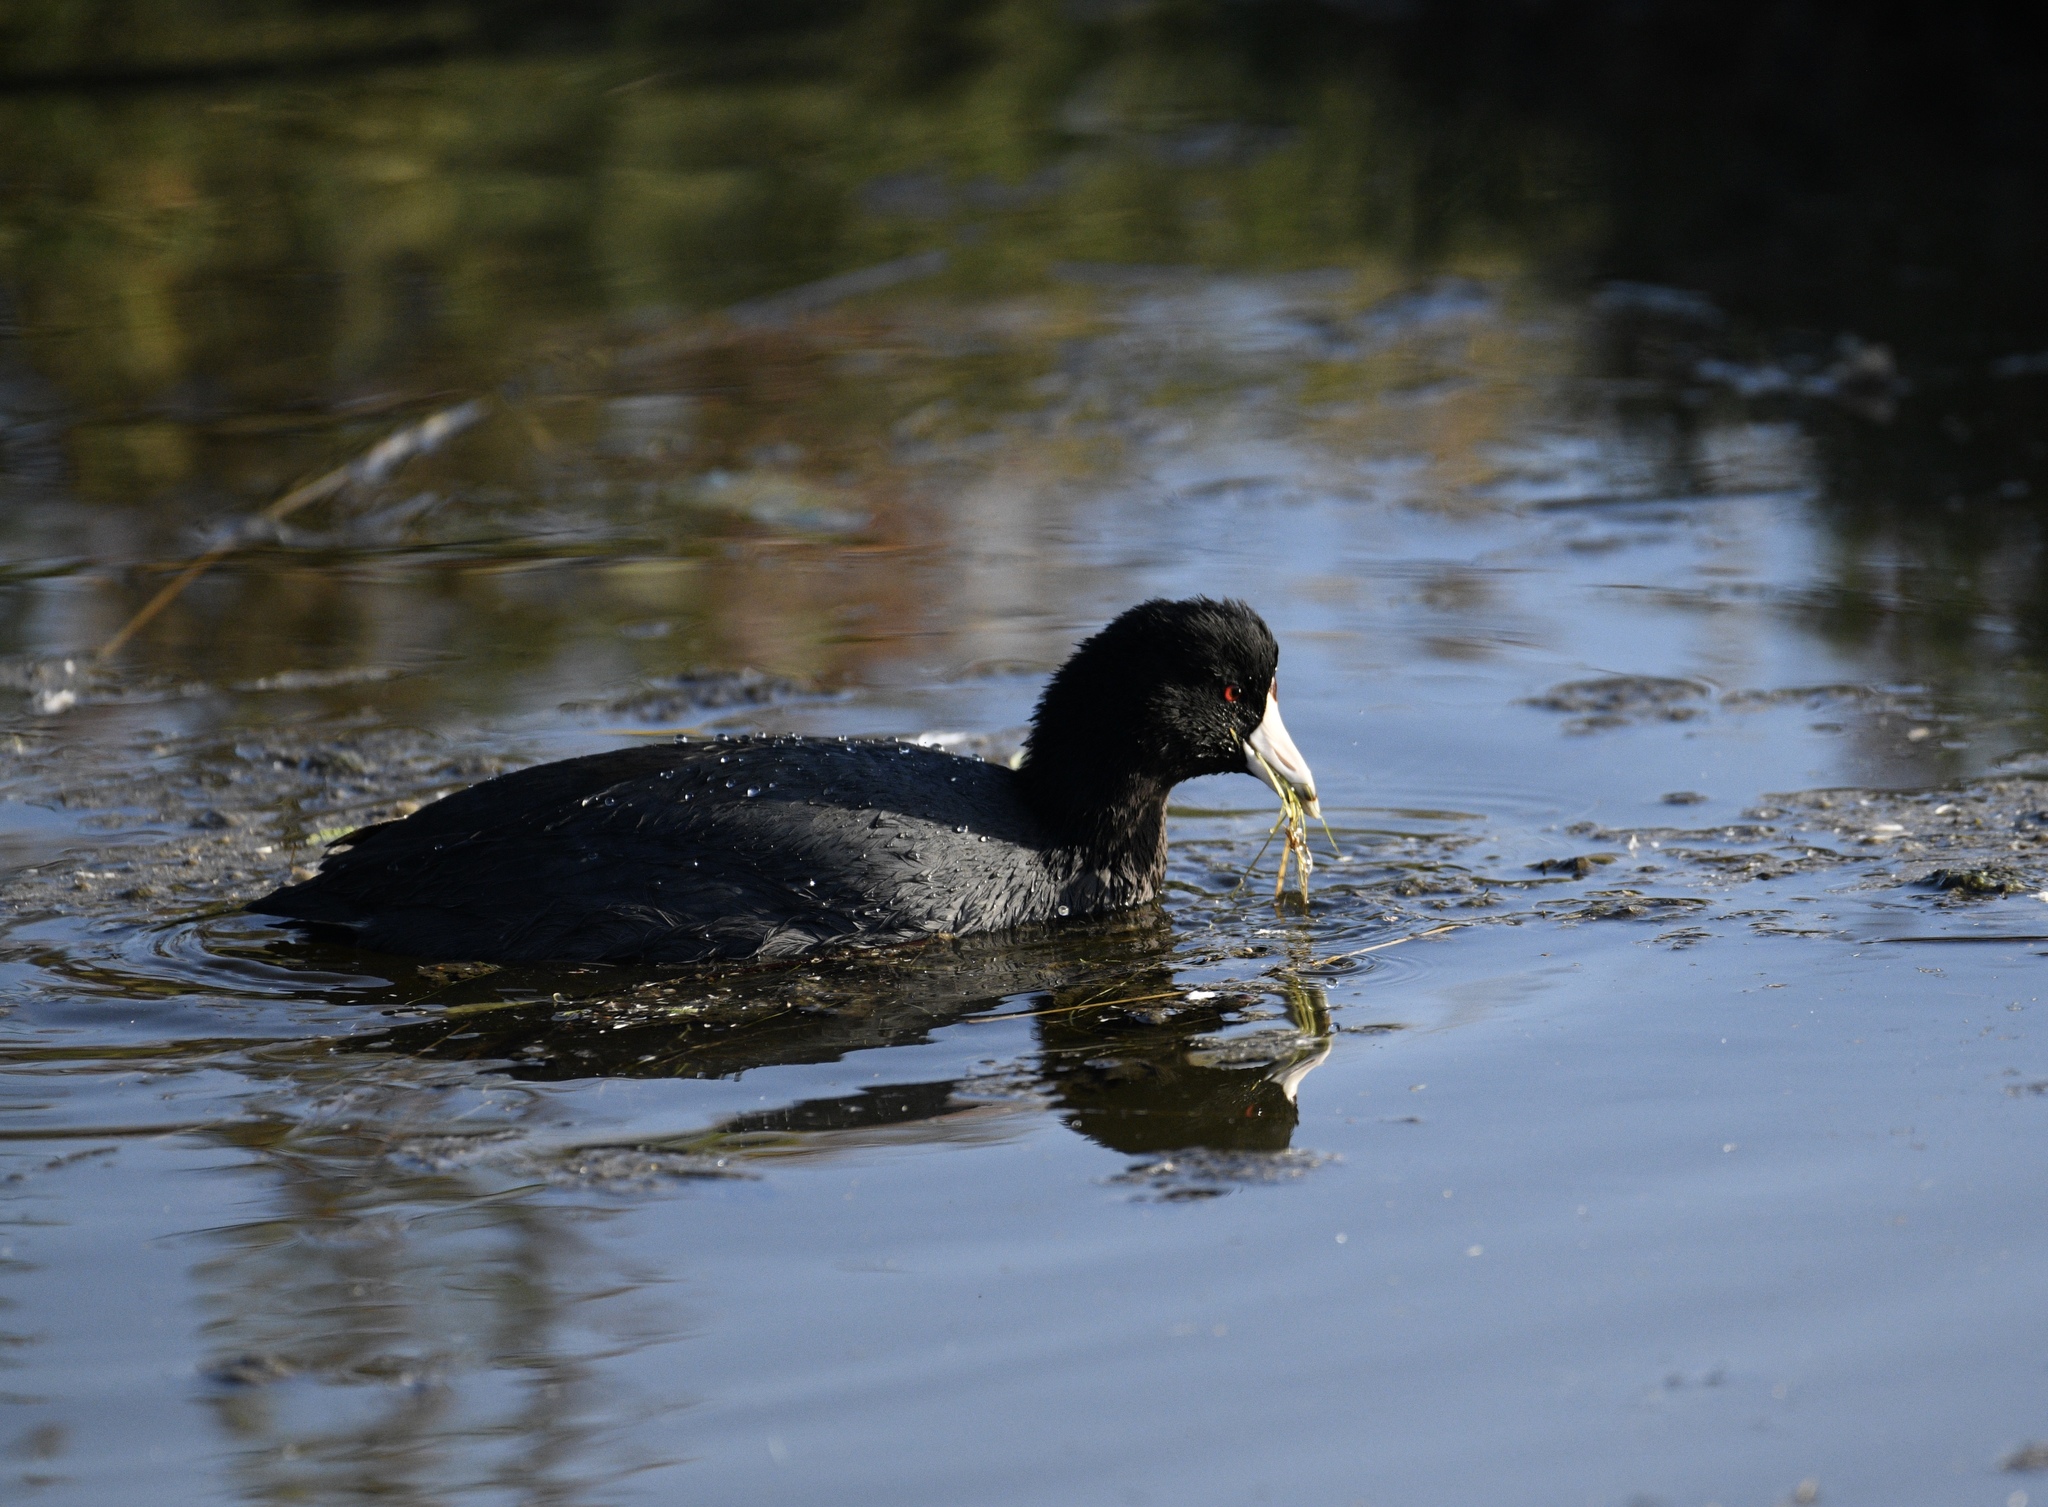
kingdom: Animalia
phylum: Chordata
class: Aves
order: Gruiformes
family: Rallidae
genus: Fulica
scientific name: Fulica americana
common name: American coot
